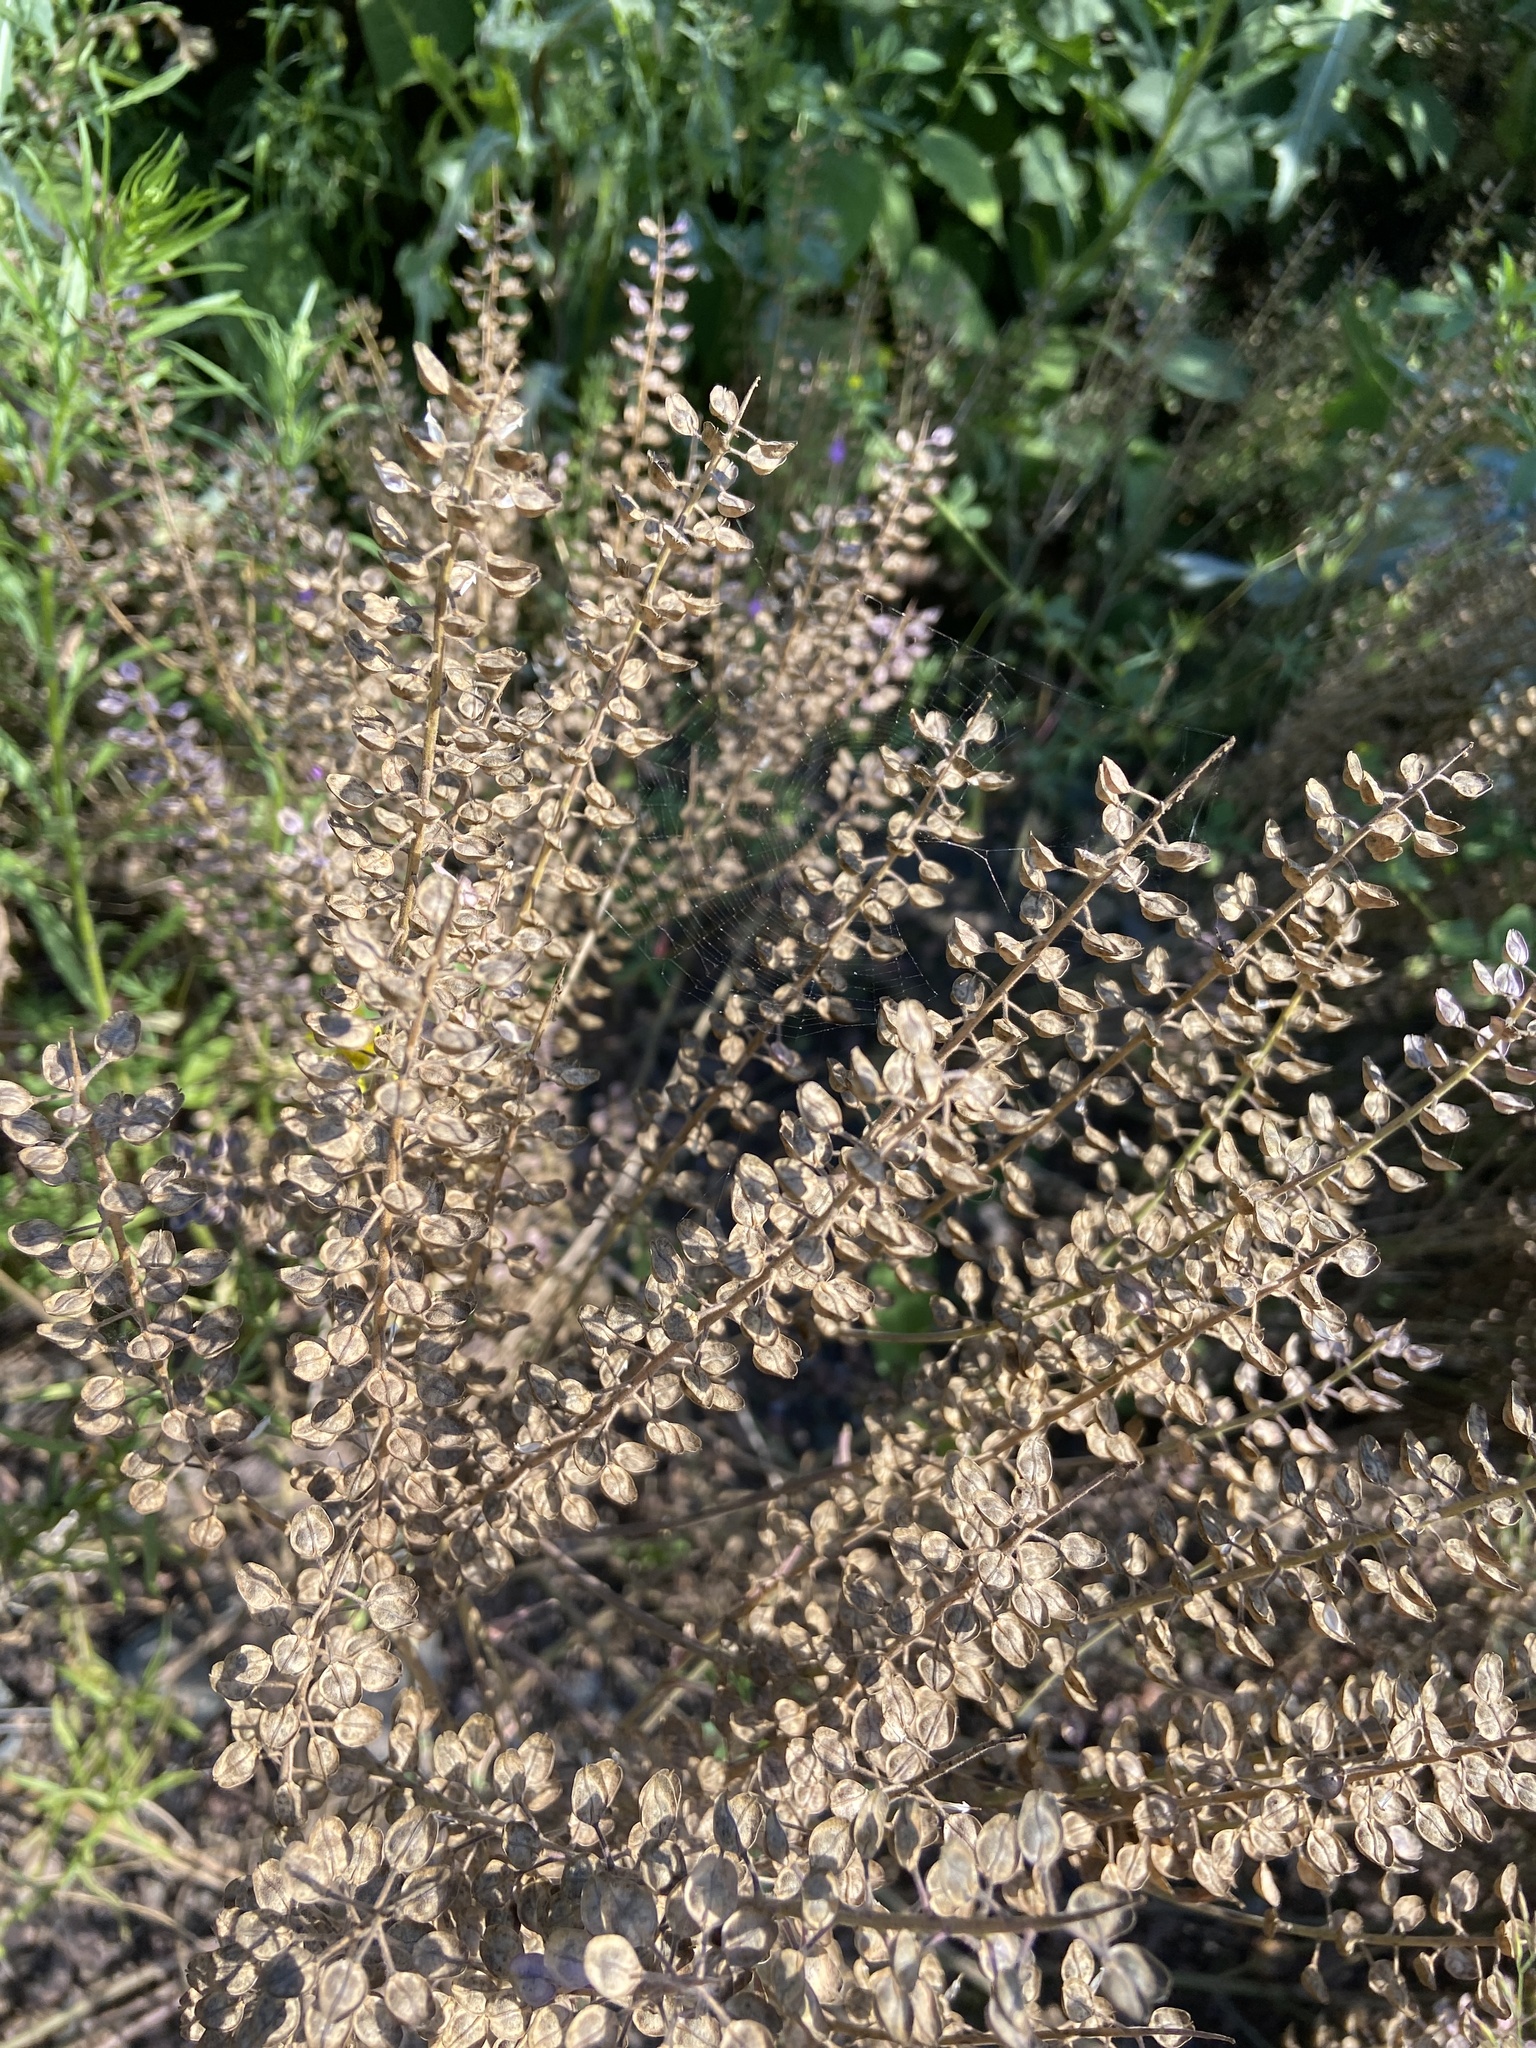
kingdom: Plantae
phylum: Tracheophyta
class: Magnoliopsida
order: Brassicales
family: Brassicaceae
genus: Lepidium
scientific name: Lepidium campestre
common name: Field pepperwort
